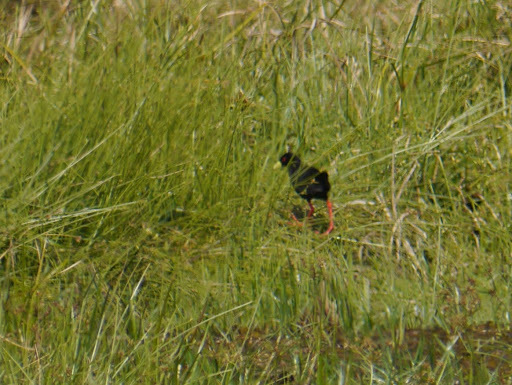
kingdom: Animalia
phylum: Chordata
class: Aves
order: Gruiformes
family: Rallidae
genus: Amaurornis
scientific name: Amaurornis flavirostra
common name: Black crake
